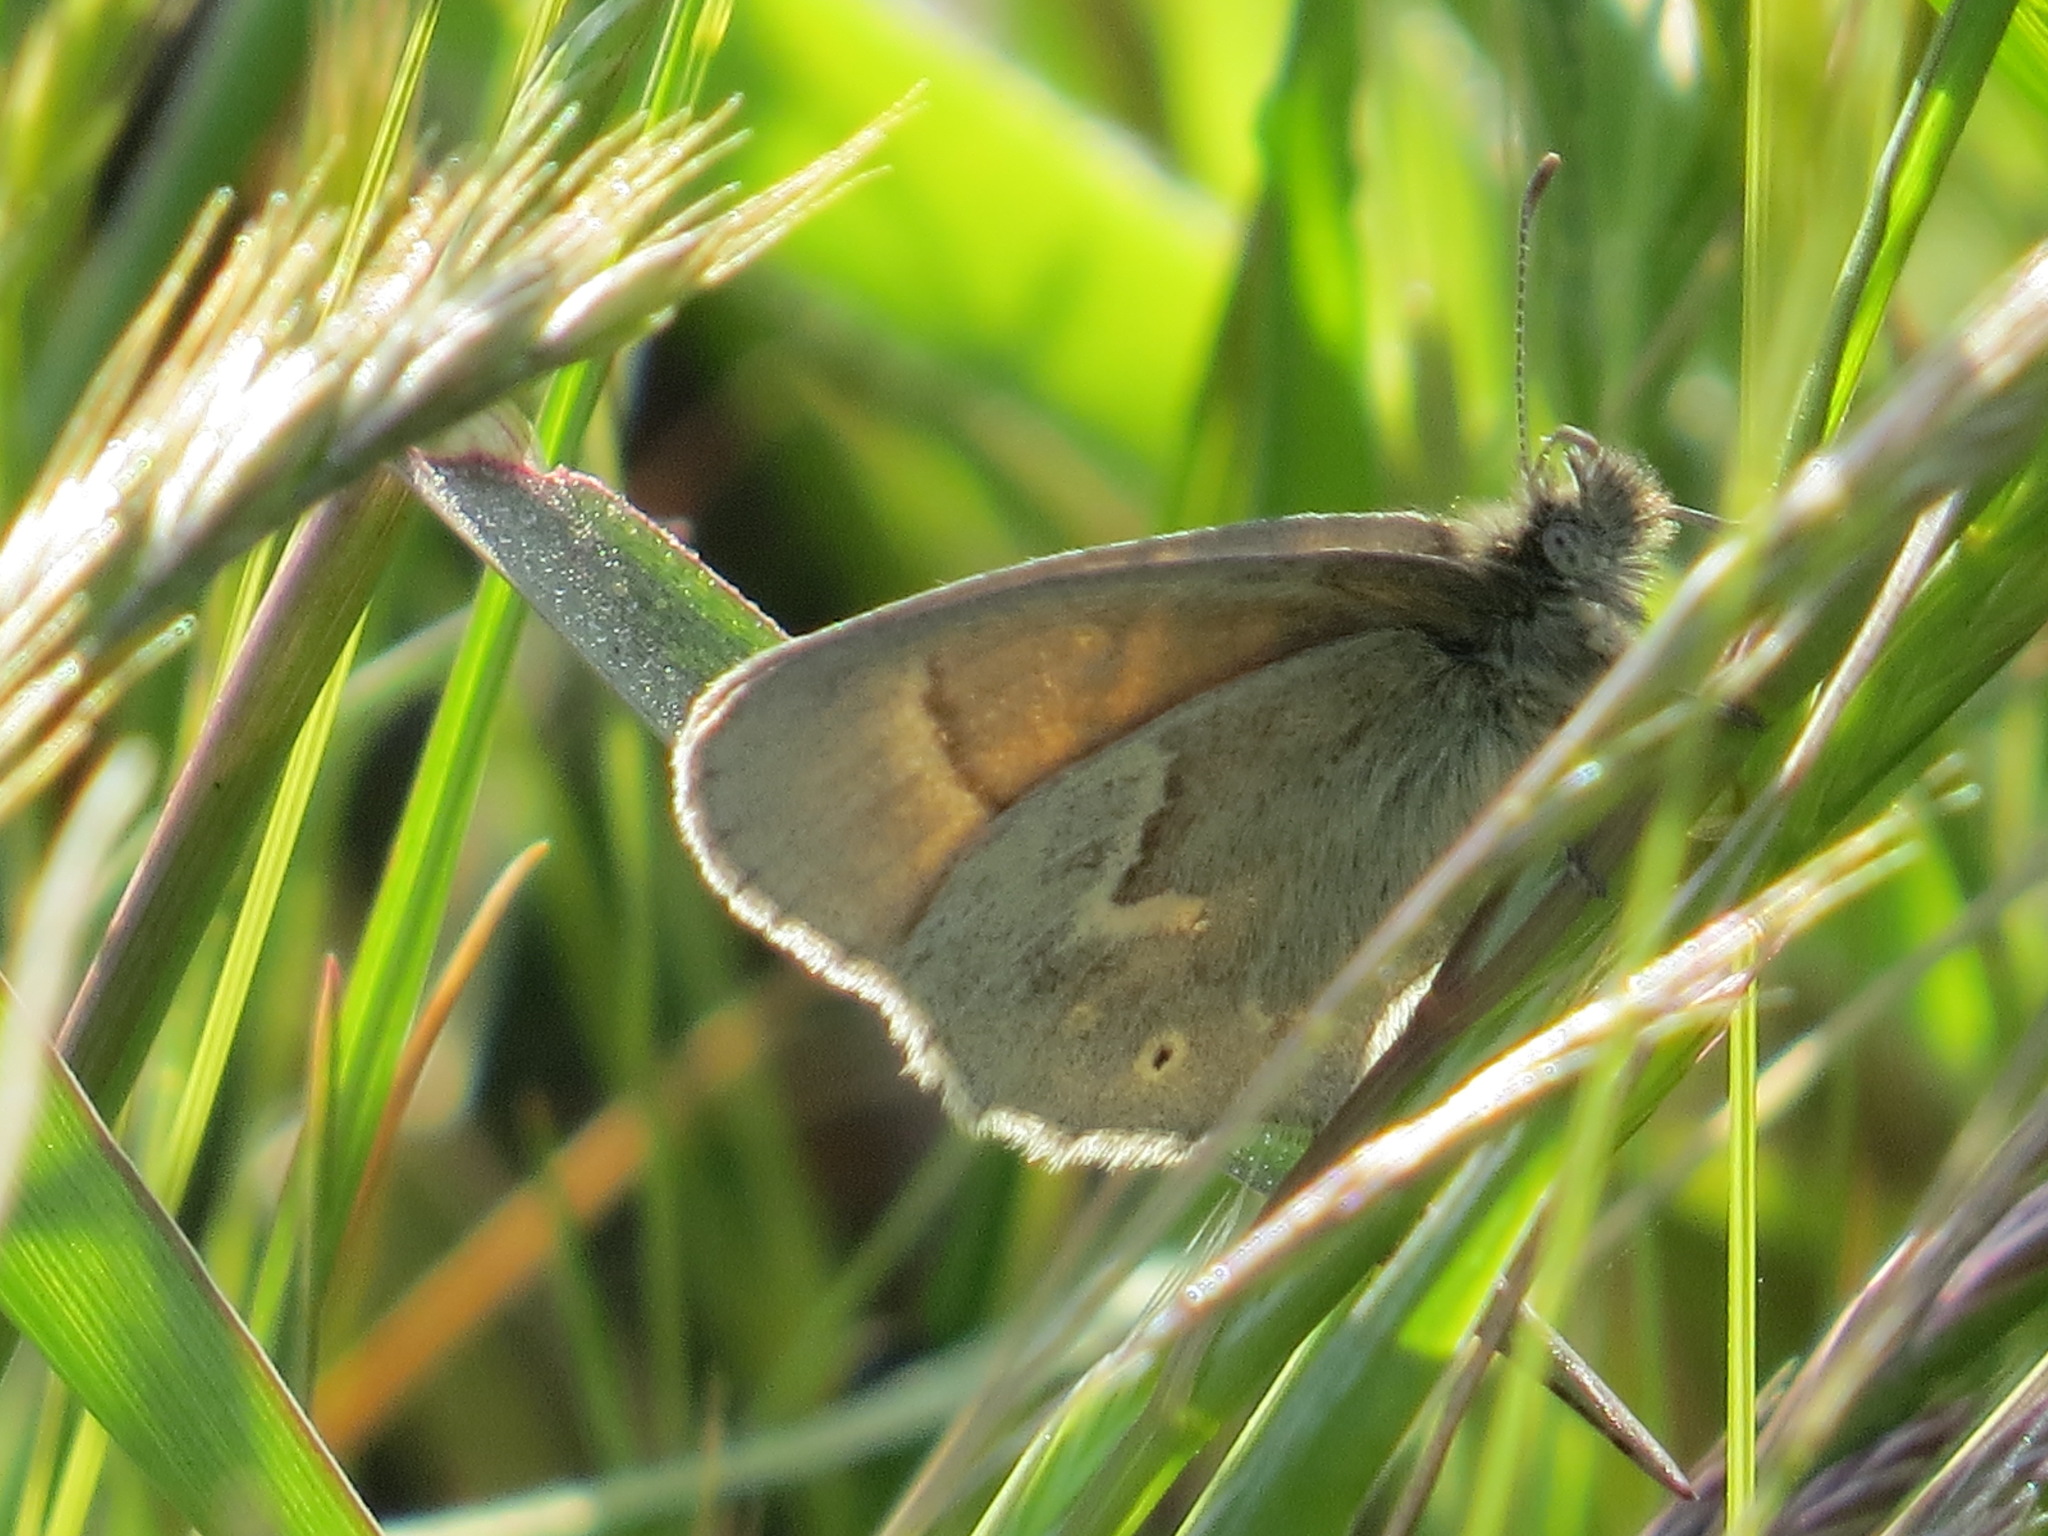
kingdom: Animalia
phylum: Arthropoda
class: Insecta
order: Lepidoptera
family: Nymphalidae
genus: Coenonympha
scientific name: Coenonympha california
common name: Common ringlet
